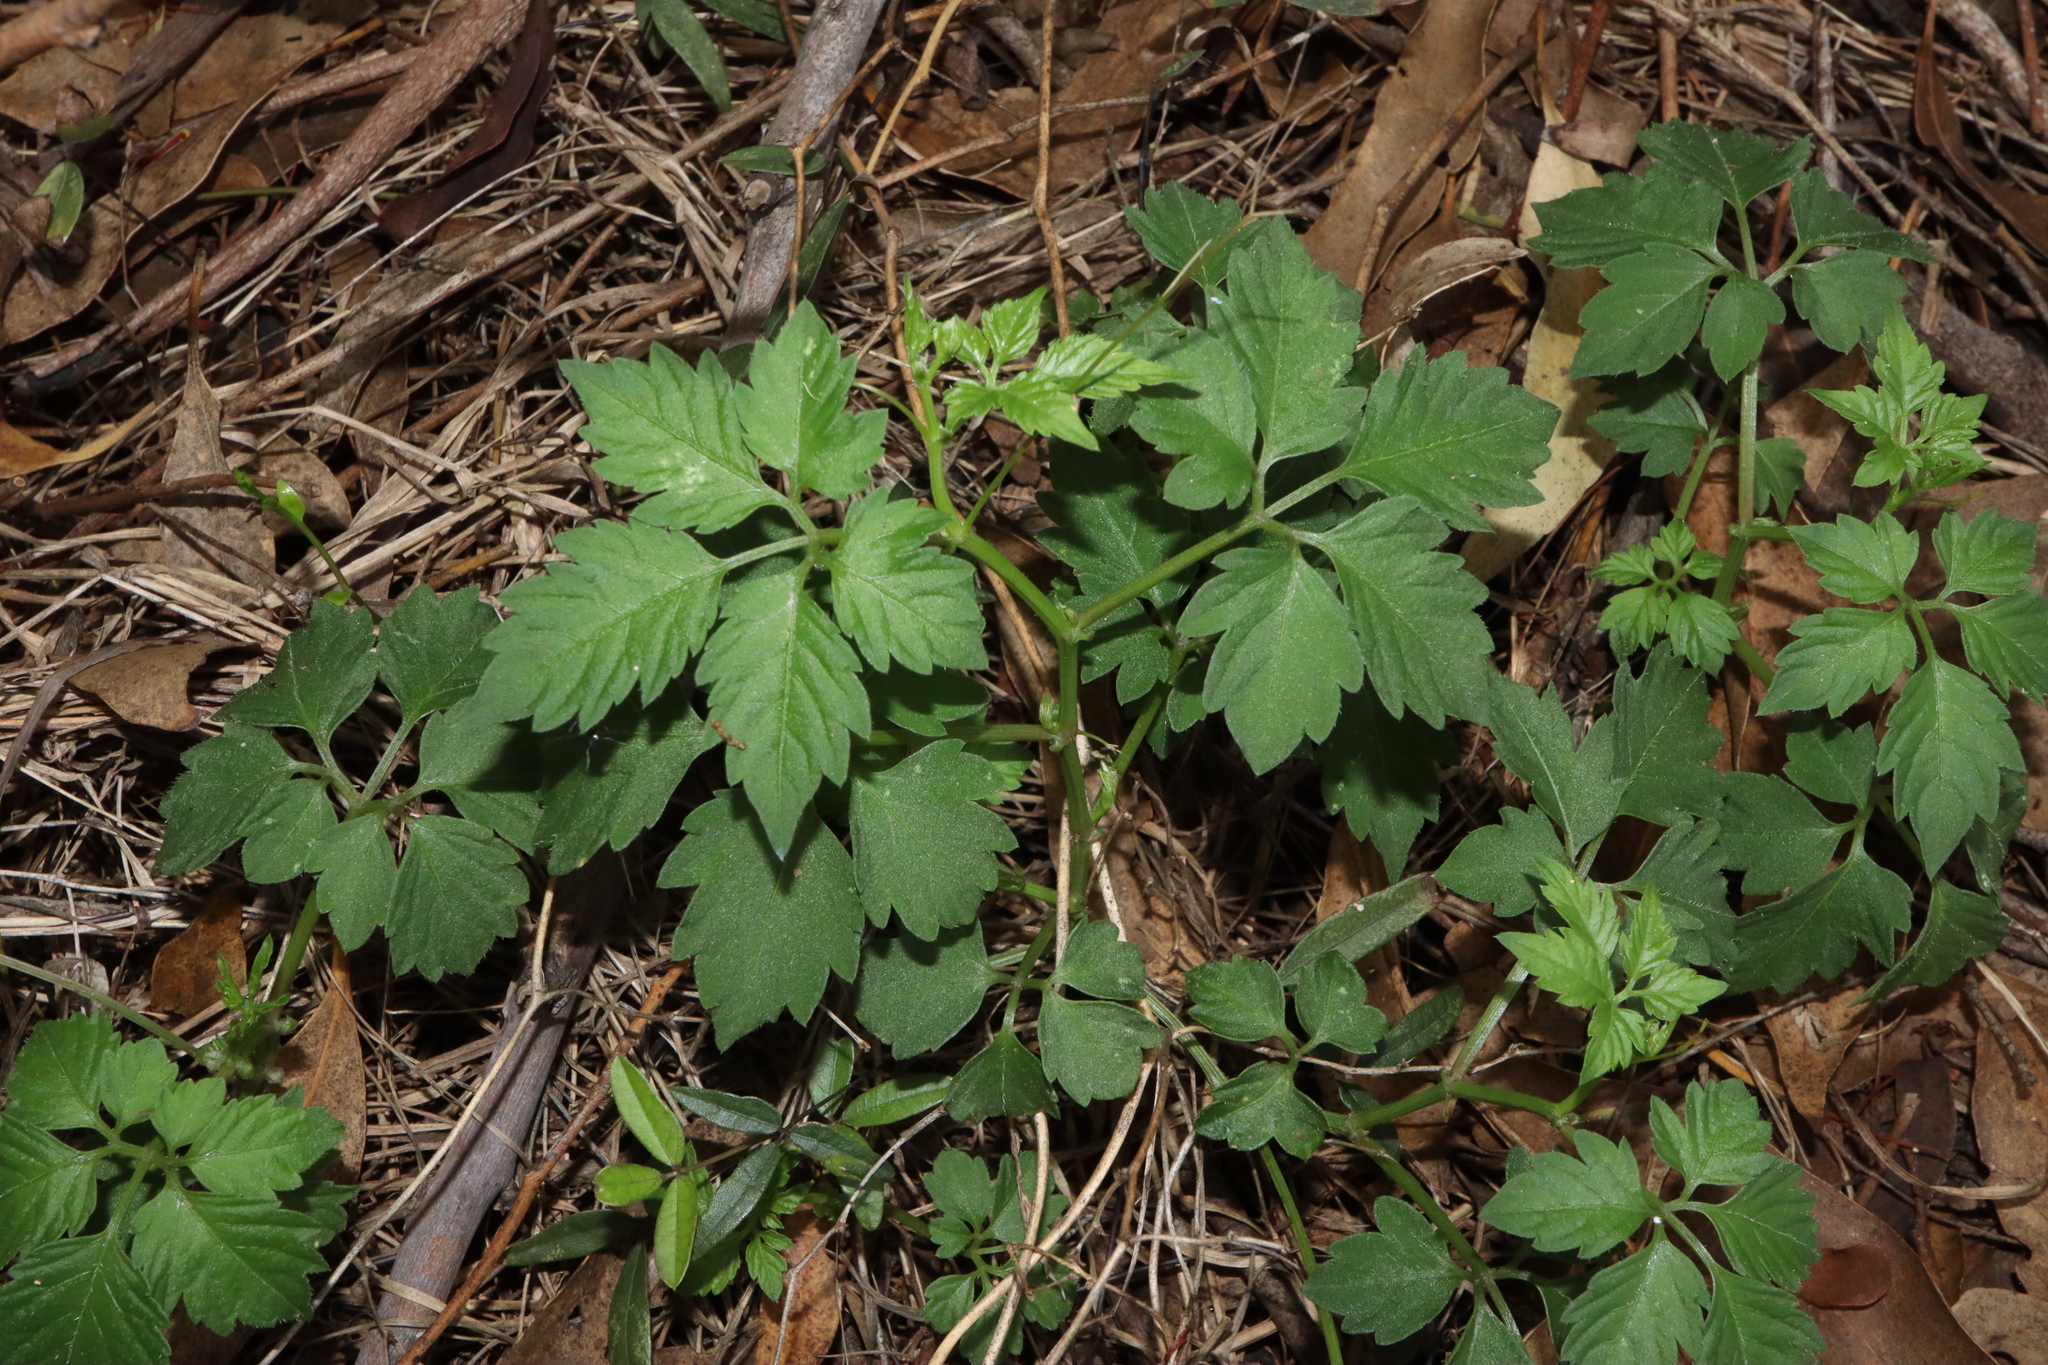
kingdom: Plantae
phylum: Tracheophyta
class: Magnoliopsida
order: Vitales
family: Vitaceae
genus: Causonis
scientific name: Causonis clematidea
